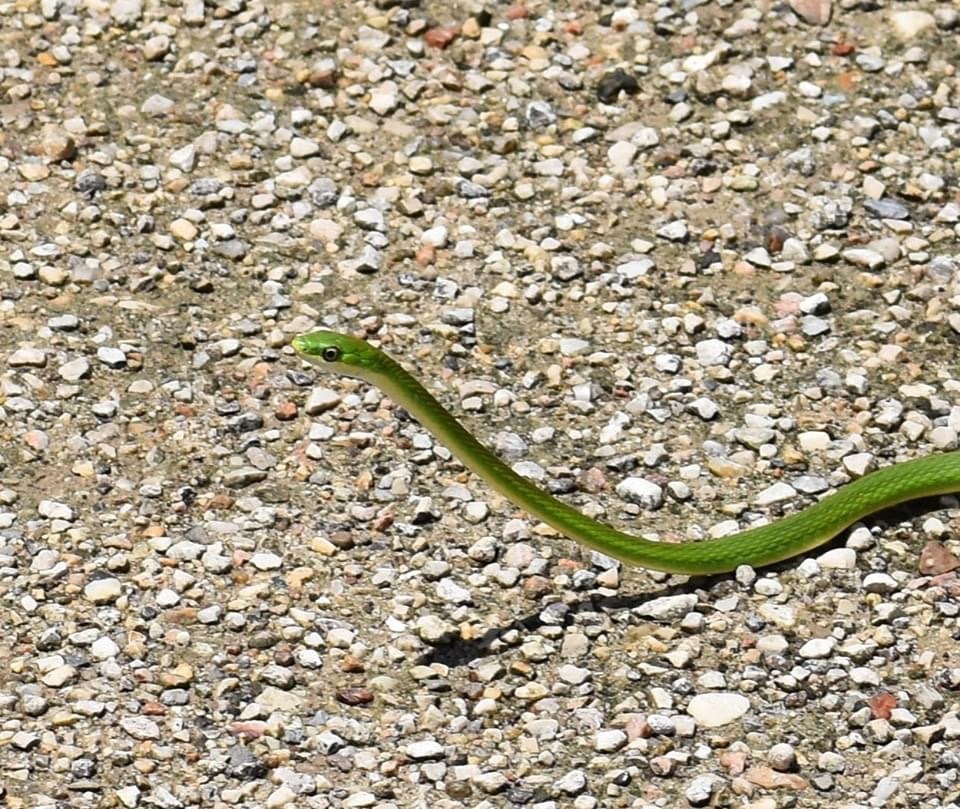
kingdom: Animalia
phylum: Chordata
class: Squamata
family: Colubridae
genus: Opheodrys
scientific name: Opheodrys aestivus
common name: Rough greensnake
